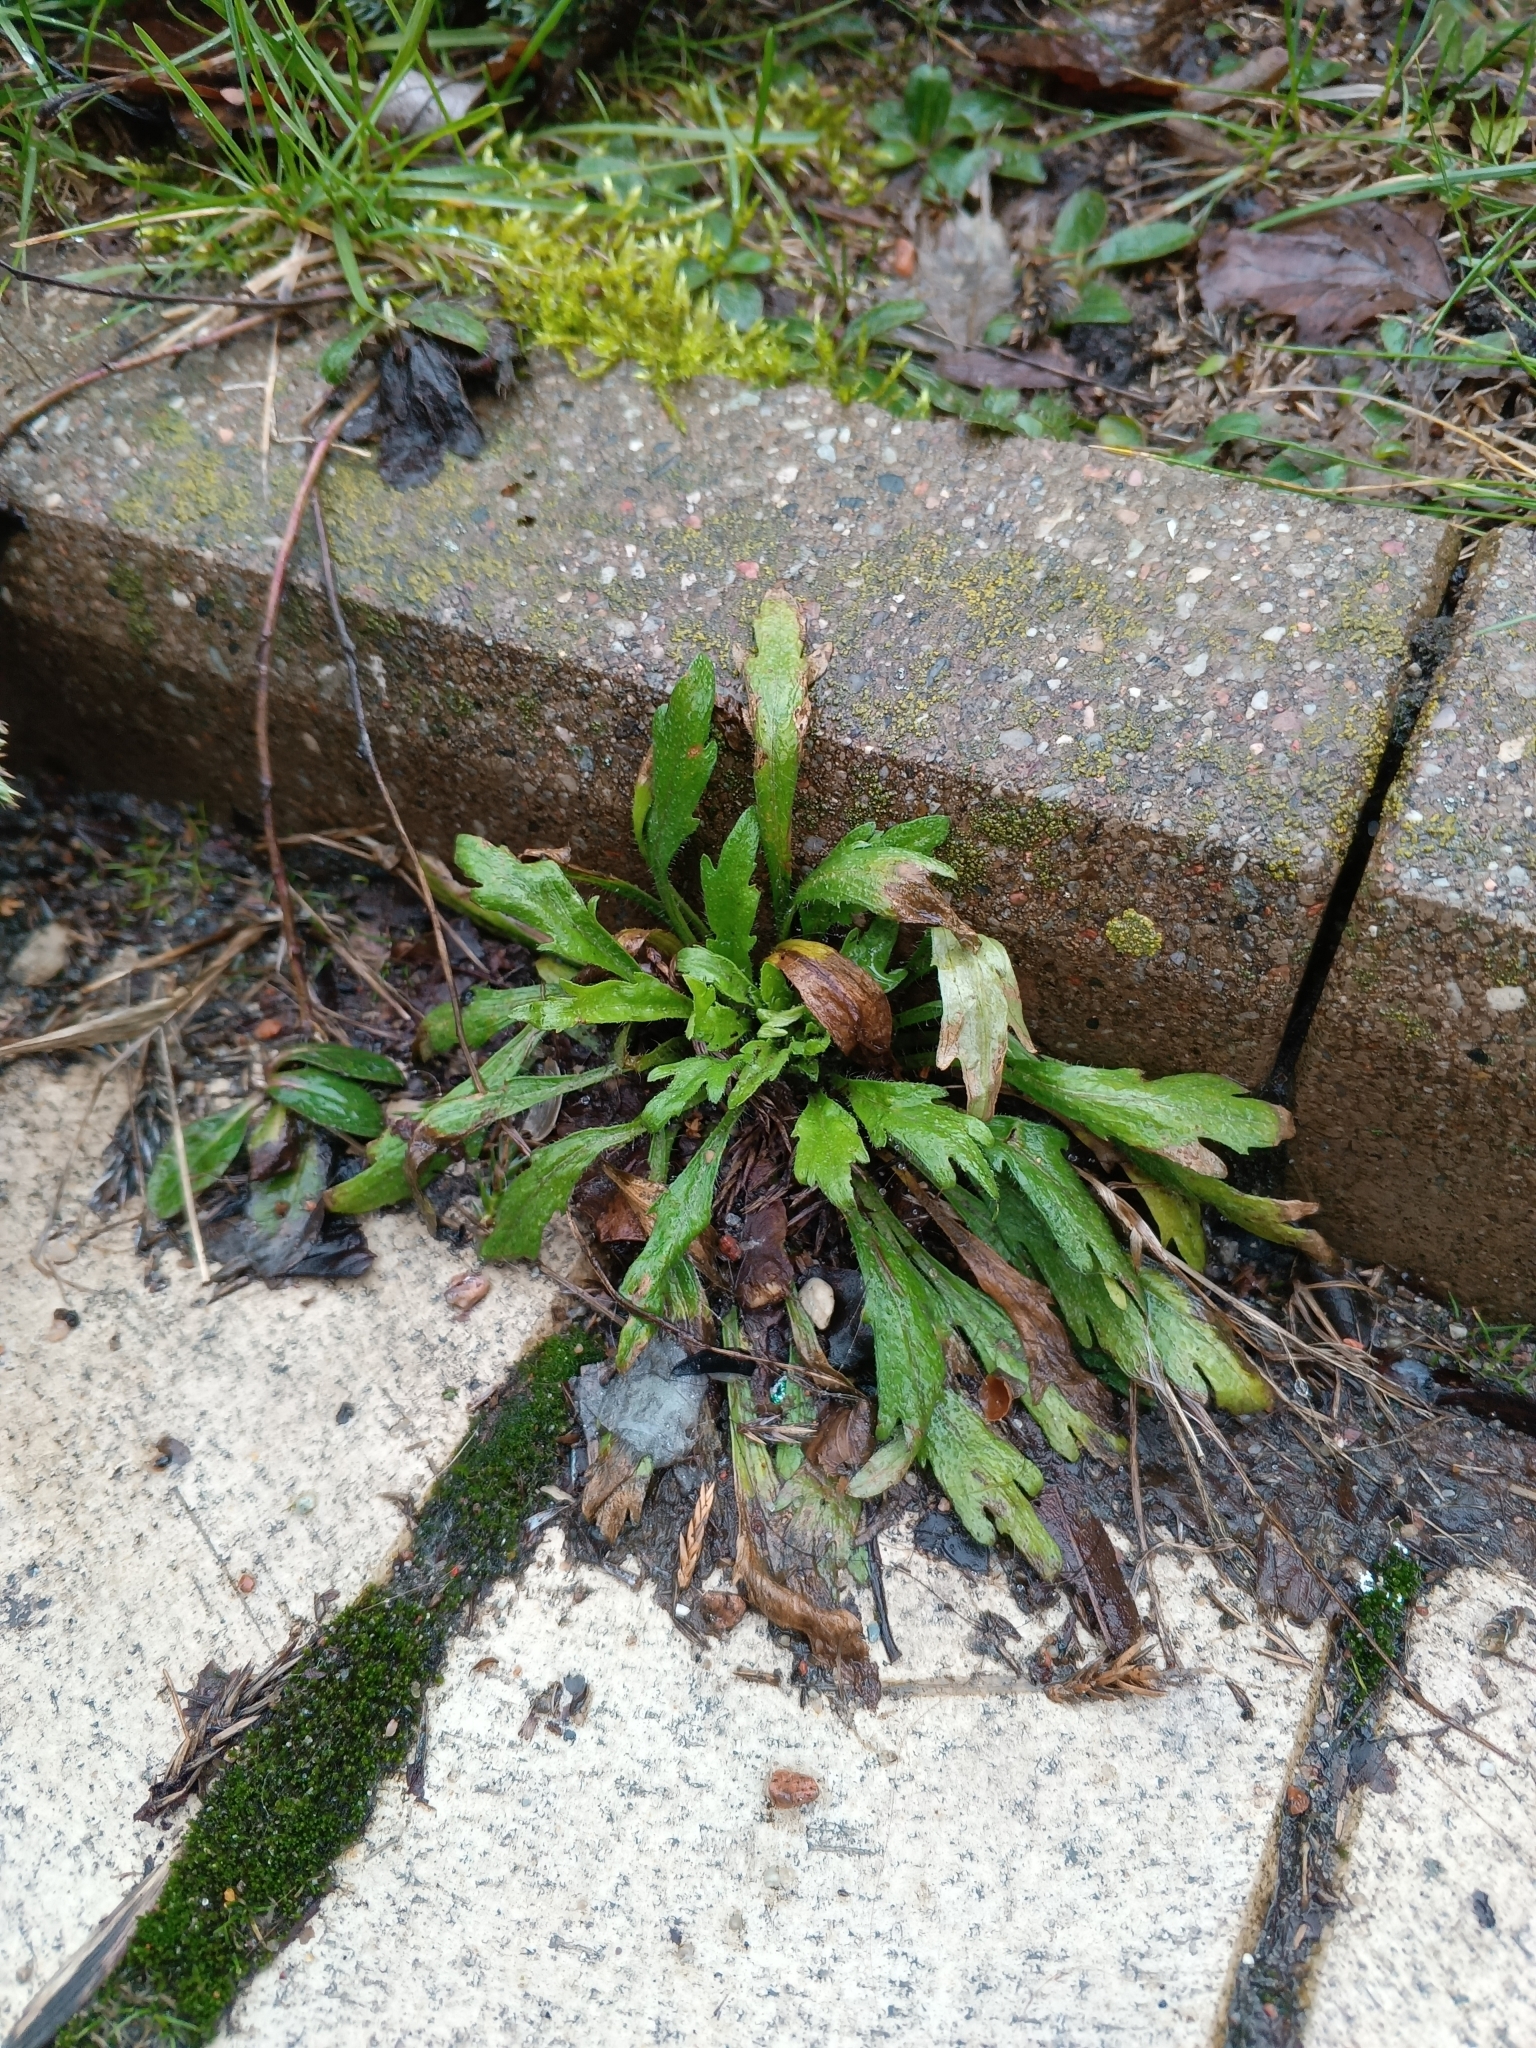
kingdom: Plantae
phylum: Tracheophyta
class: Magnoliopsida
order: Asterales
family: Asteraceae
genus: Erigeron
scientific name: Erigeron canadensis
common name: Canadian fleabane
